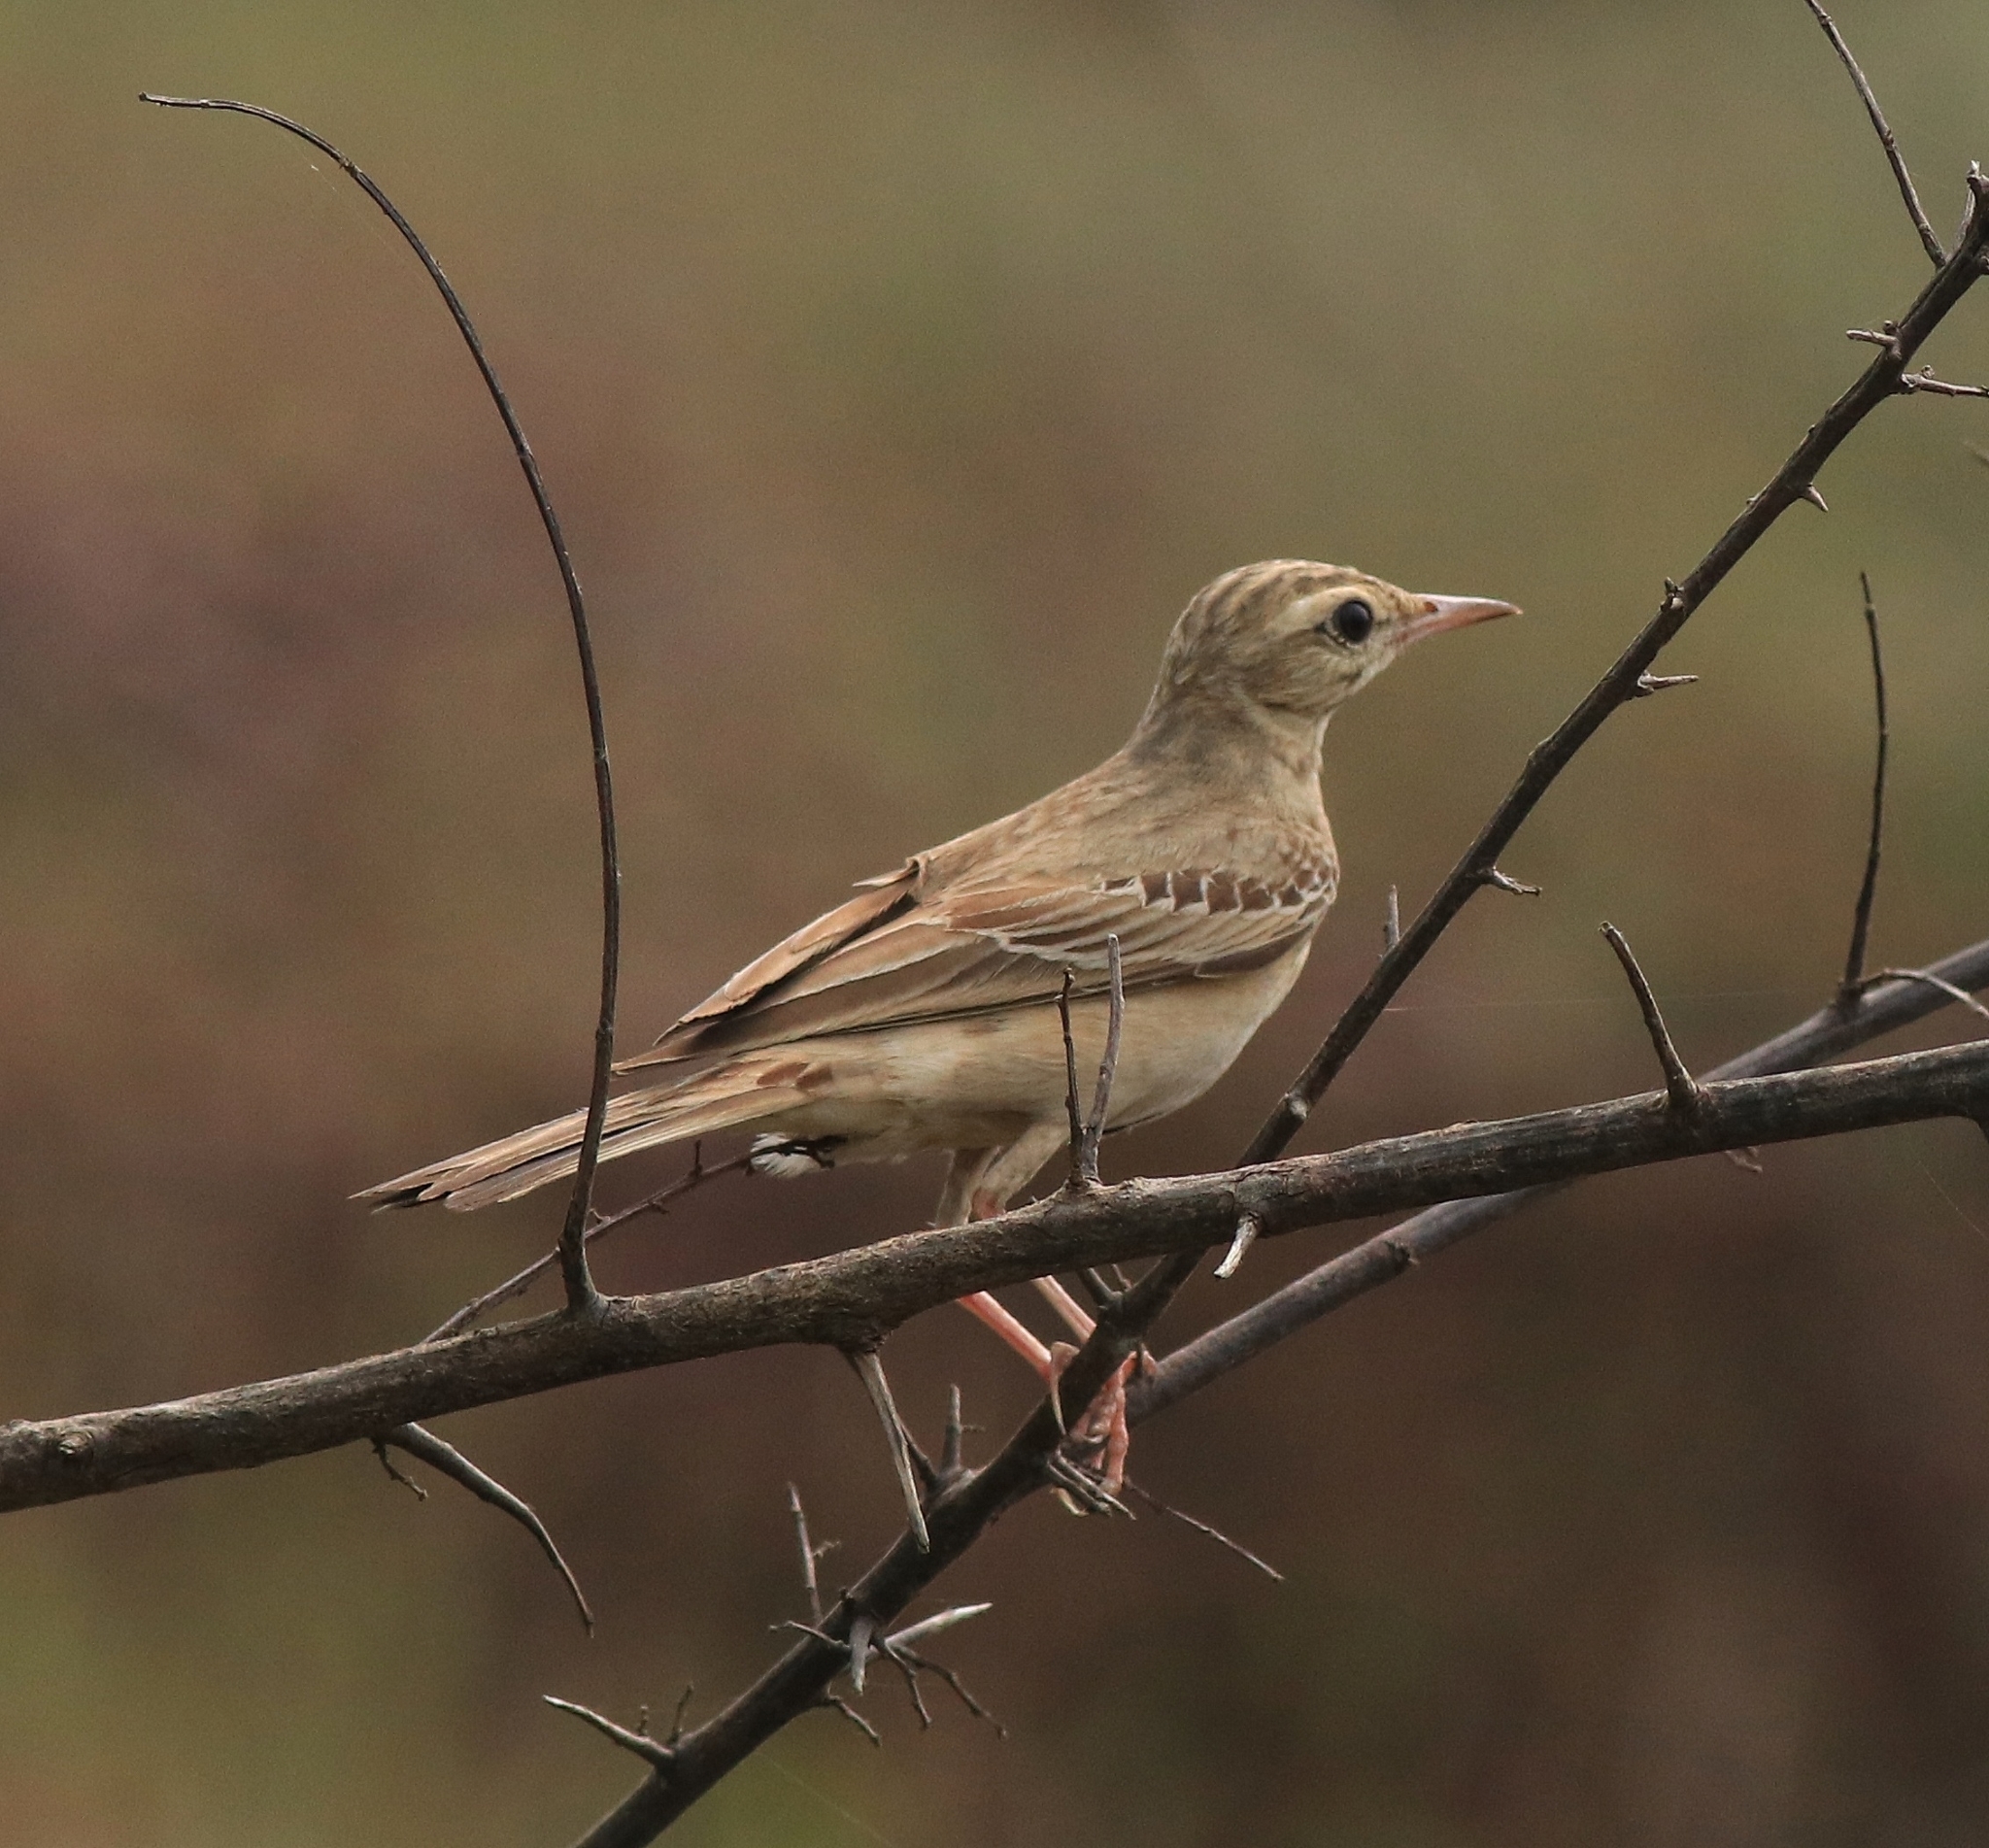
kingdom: Animalia
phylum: Chordata
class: Aves
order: Passeriformes
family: Motacillidae
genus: Anthus
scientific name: Anthus campestris
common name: Tawny pipit
